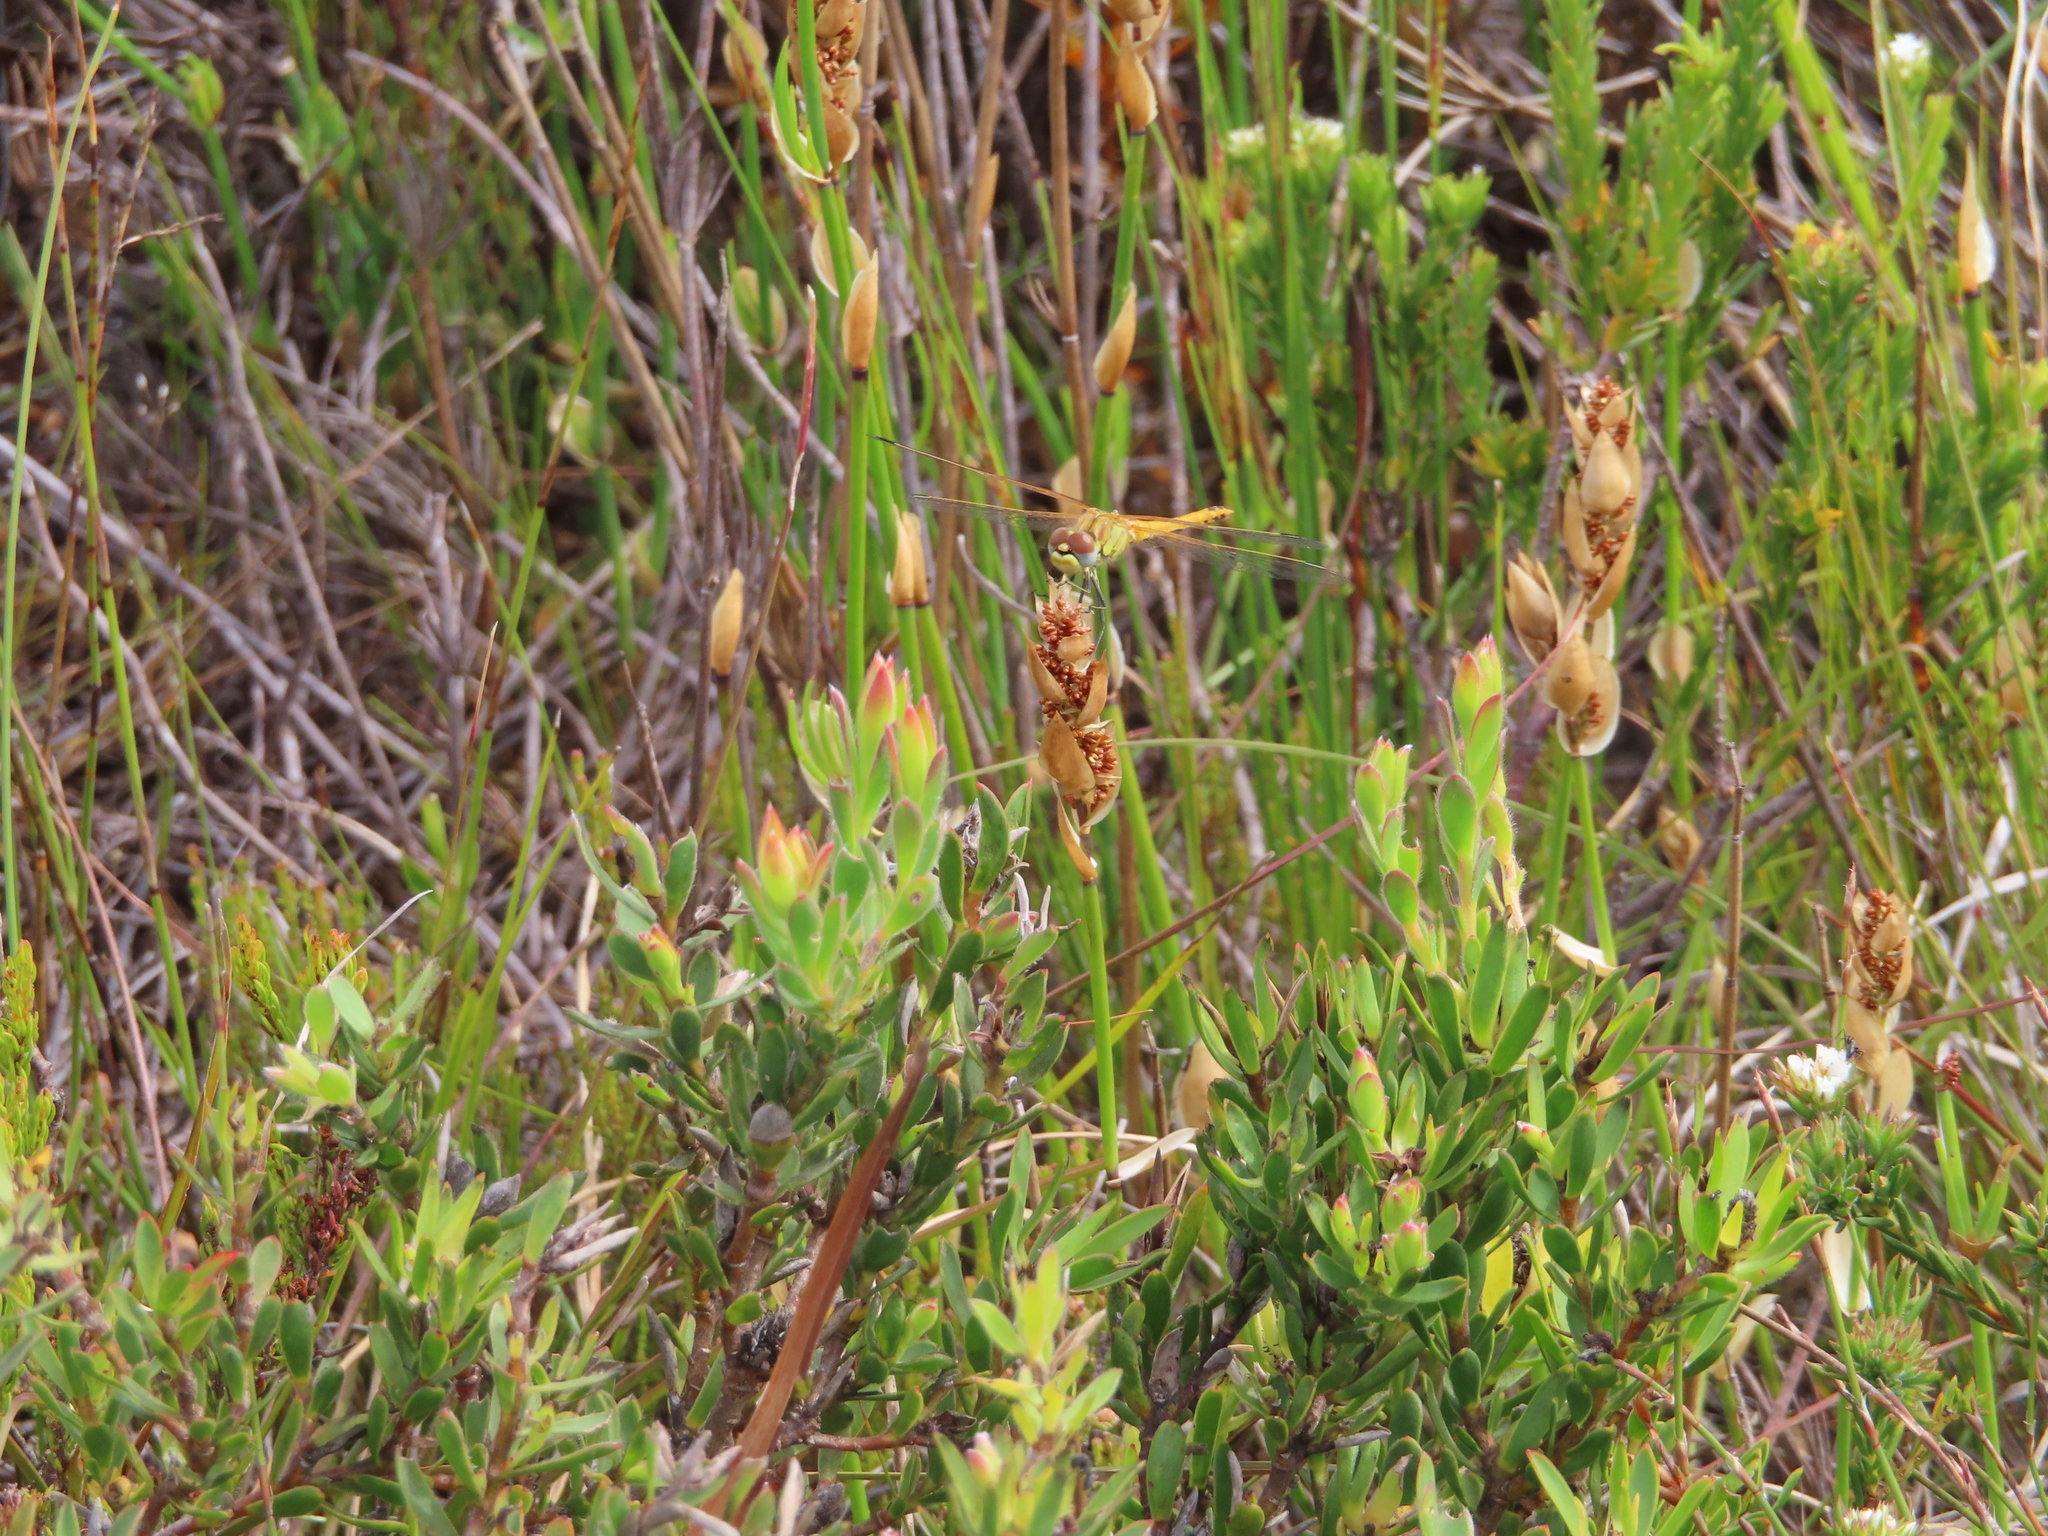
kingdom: Animalia
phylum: Arthropoda
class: Insecta
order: Odonata
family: Libellulidae
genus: Sympetrum
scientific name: Sympetrum fonscolombii
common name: Red-veined darter
